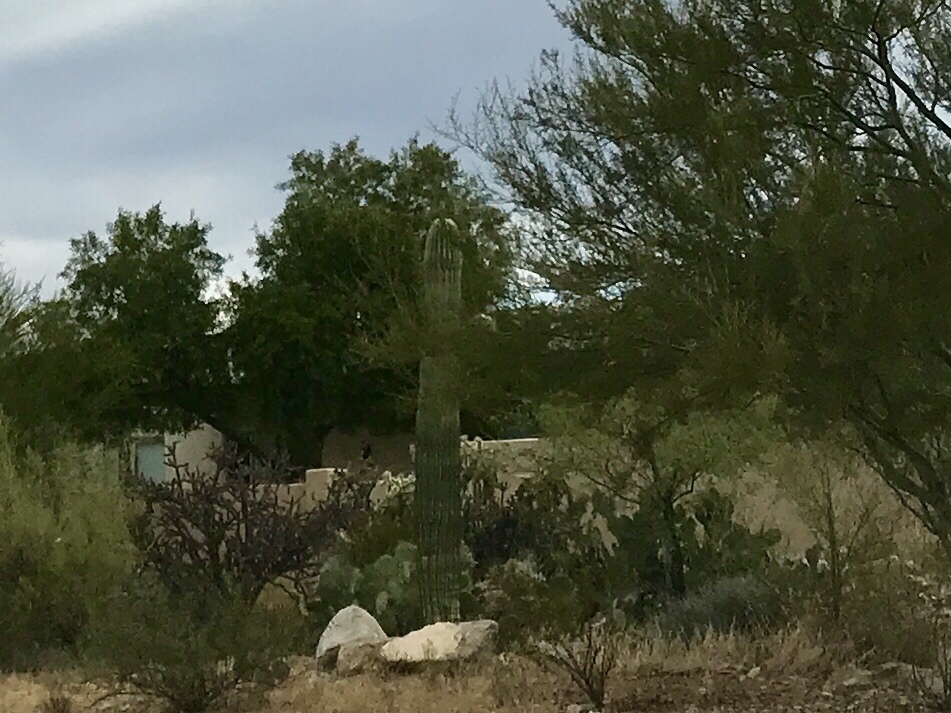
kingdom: Plantae
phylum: Tracheophyta
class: Magnoliopsida
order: Caryophyllales
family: Cactaceae
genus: Carnegiea
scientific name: Carnegiea gigantea
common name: Saguaro
